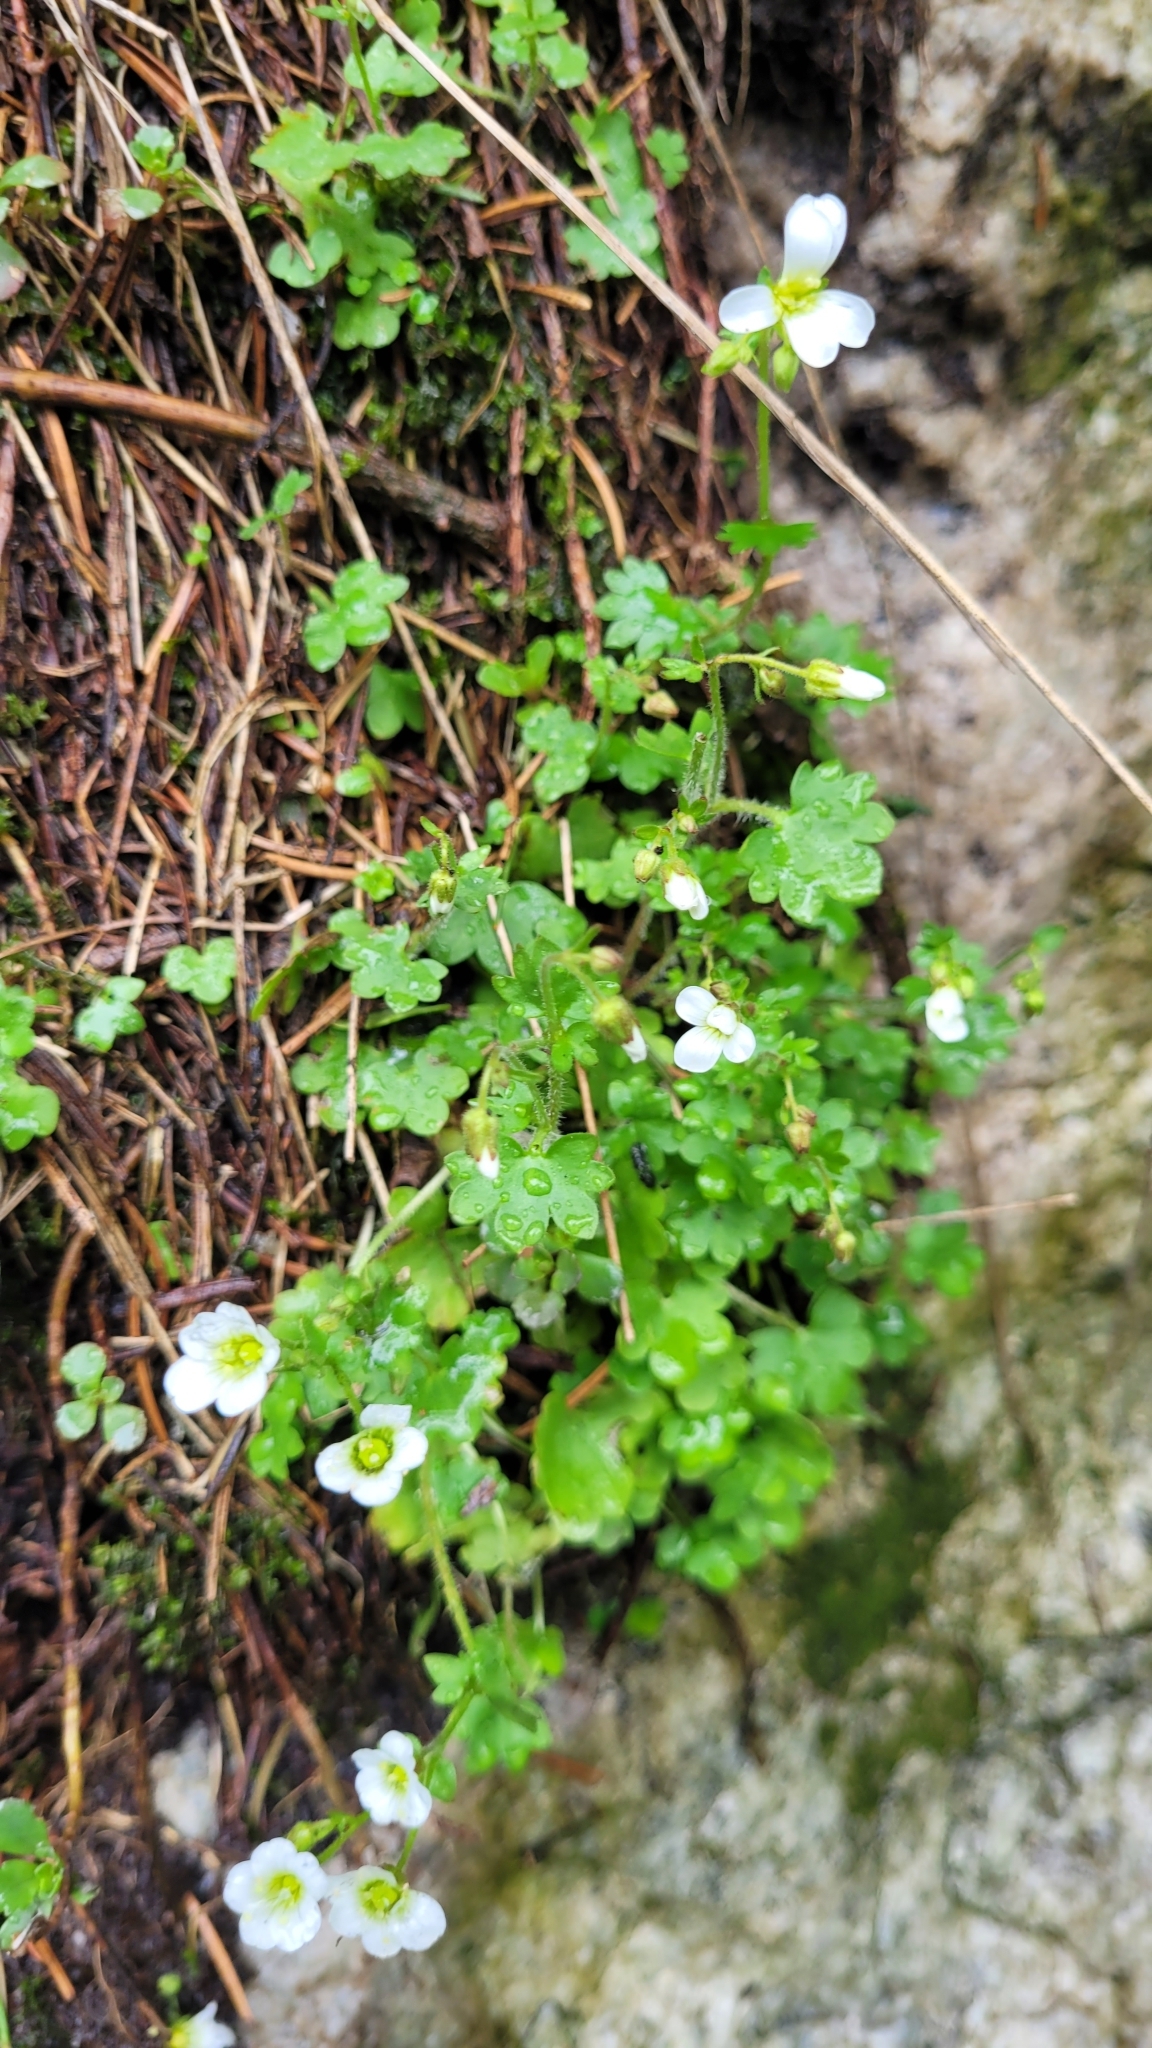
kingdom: Plantae
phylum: Tracheophyta
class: Magnoliopsida
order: Saxifragales
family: Saxifragaceae
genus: Saxifraga
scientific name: Saxifraga sibirica
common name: Siberian saxifrage
